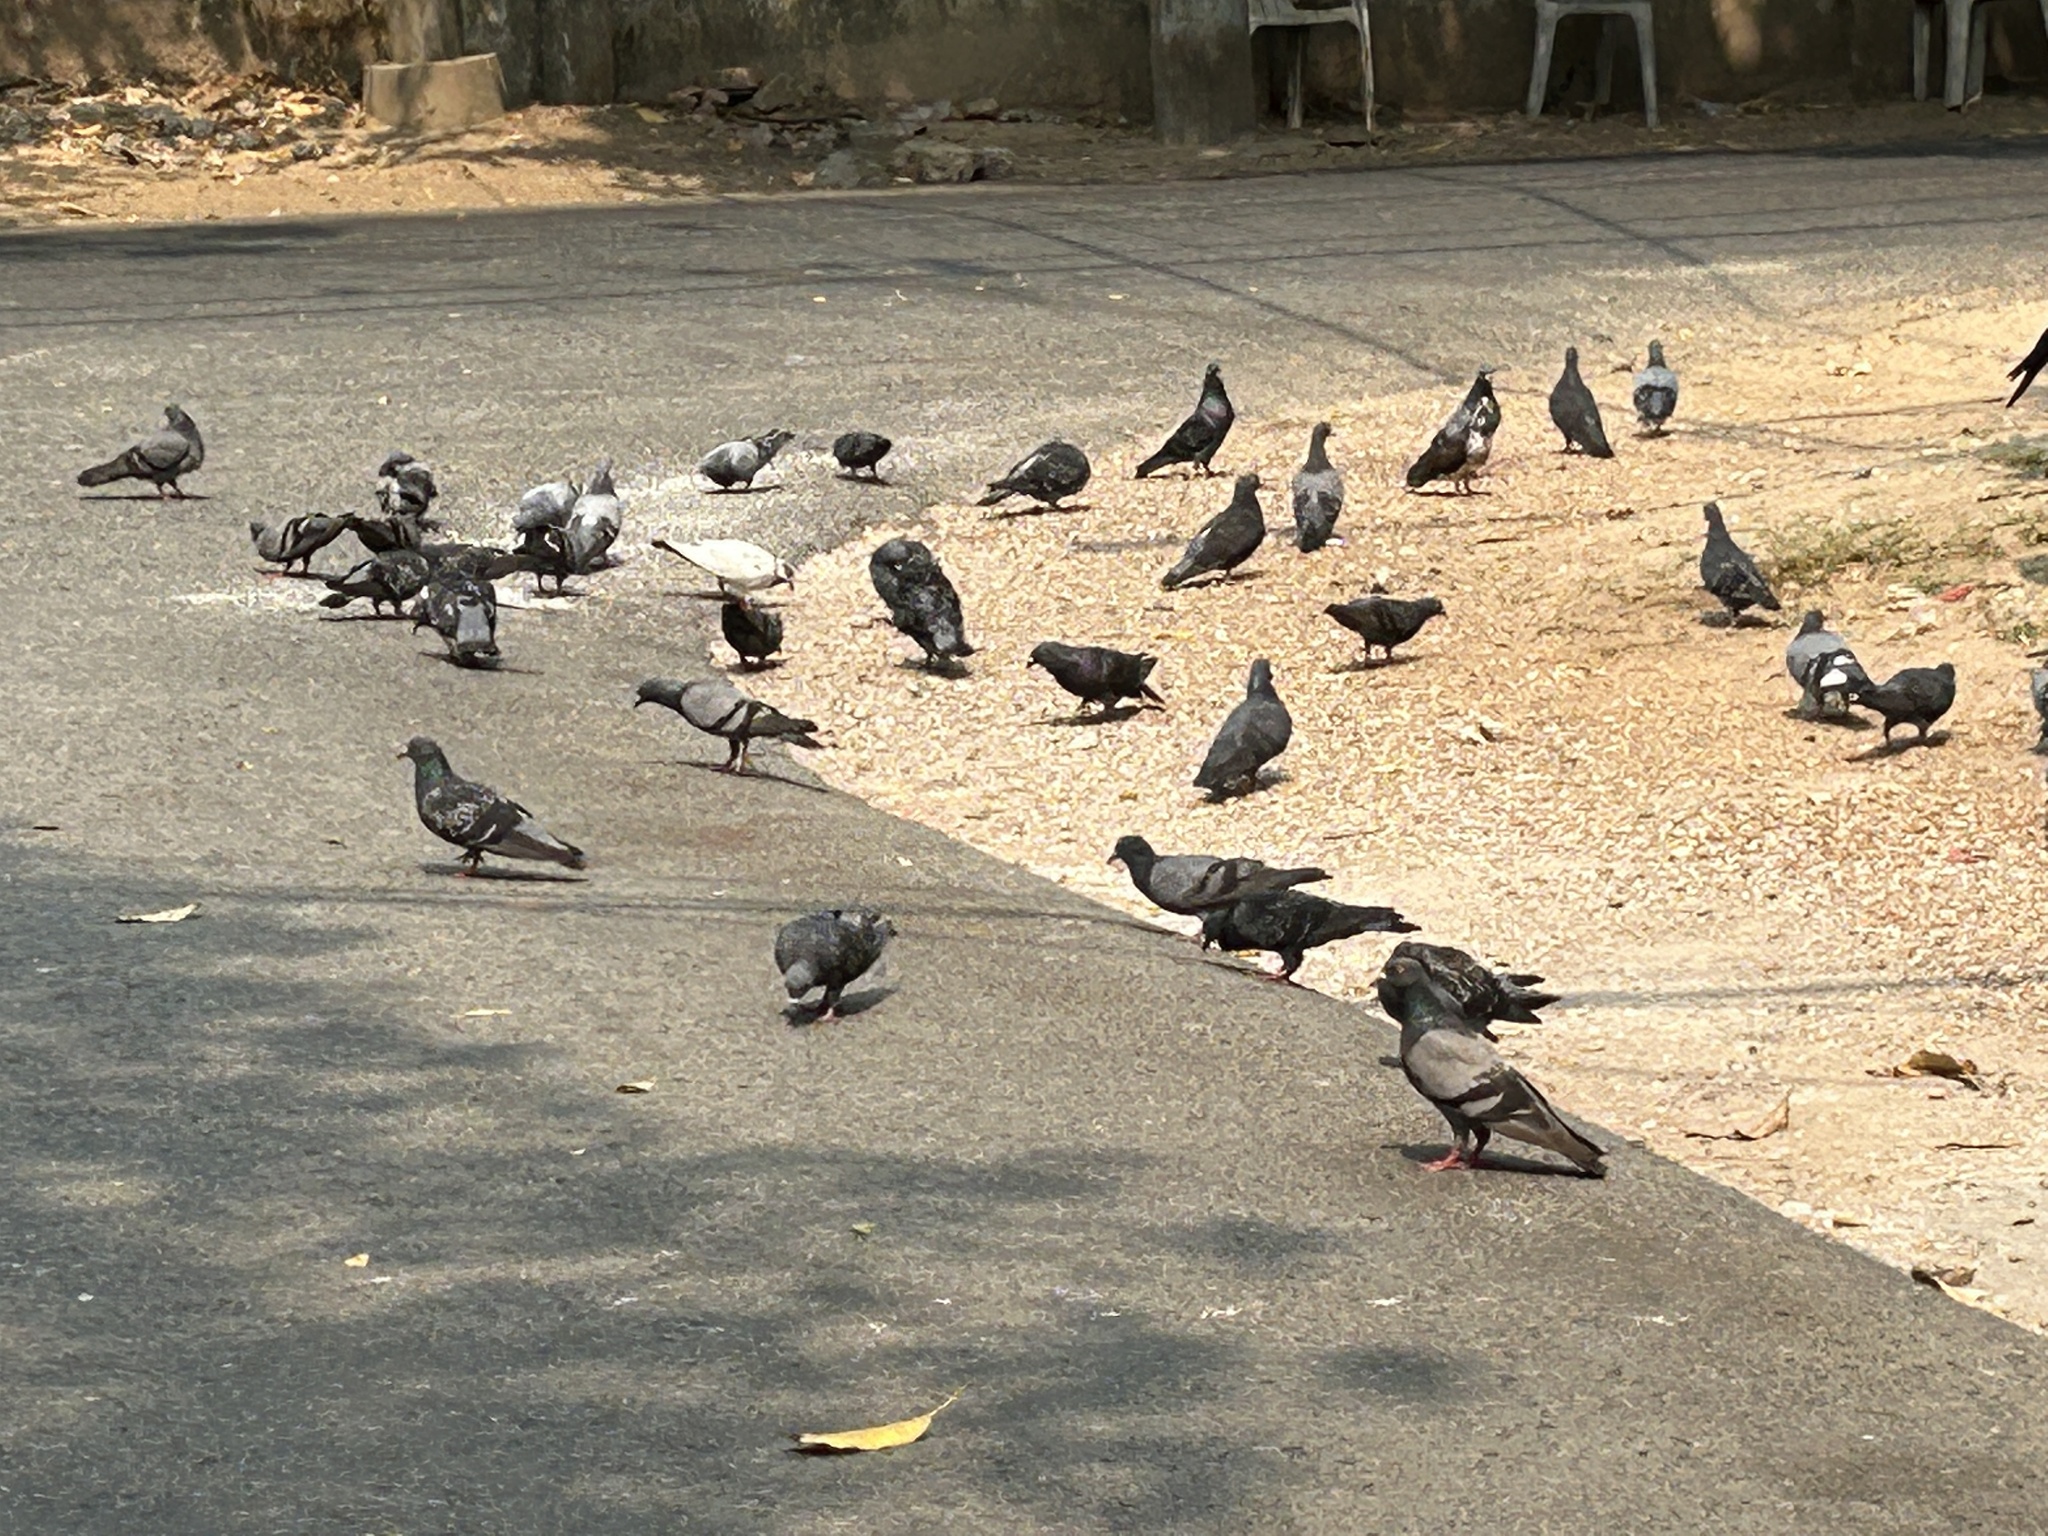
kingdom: Animalia
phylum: Chordata
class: Aves
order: Columbiformes
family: Columbidae
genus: Columba
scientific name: Columba livia
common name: Rock pigeon
